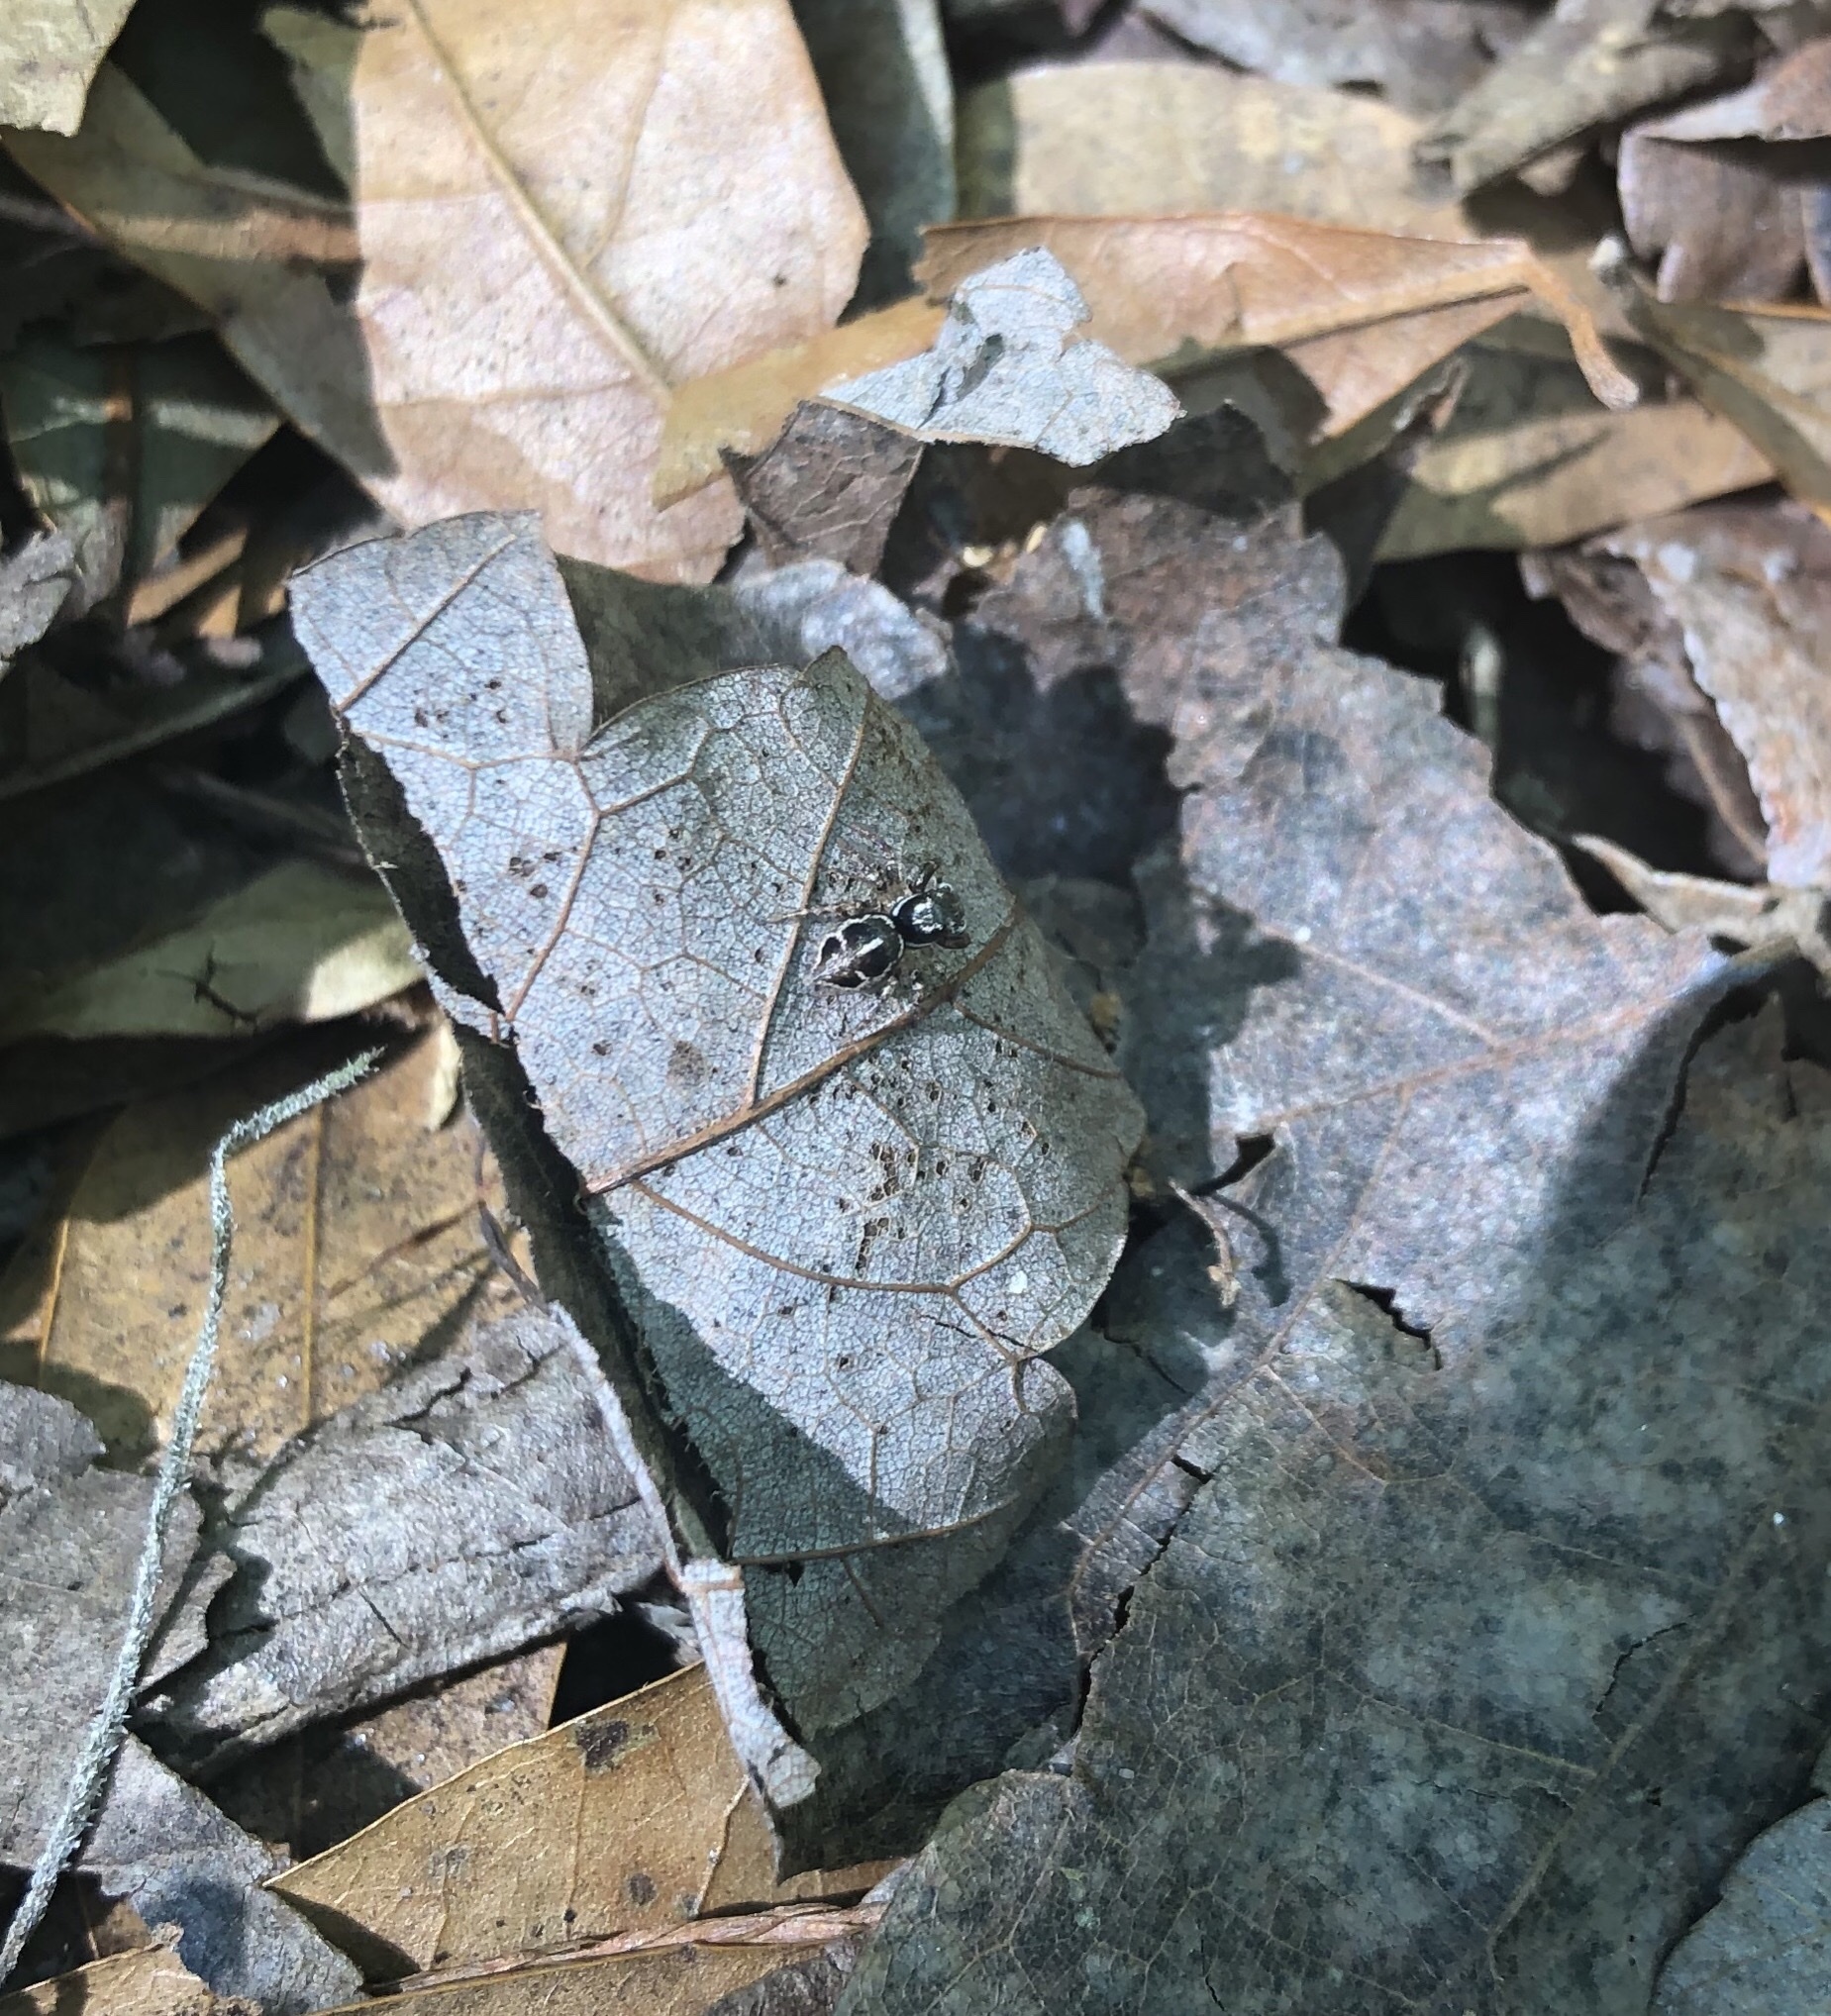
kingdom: Animalia
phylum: Arthropoda
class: Arachnida
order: Araneae
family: Salticidae
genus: Anasaitis
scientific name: Anasaitis canosa
